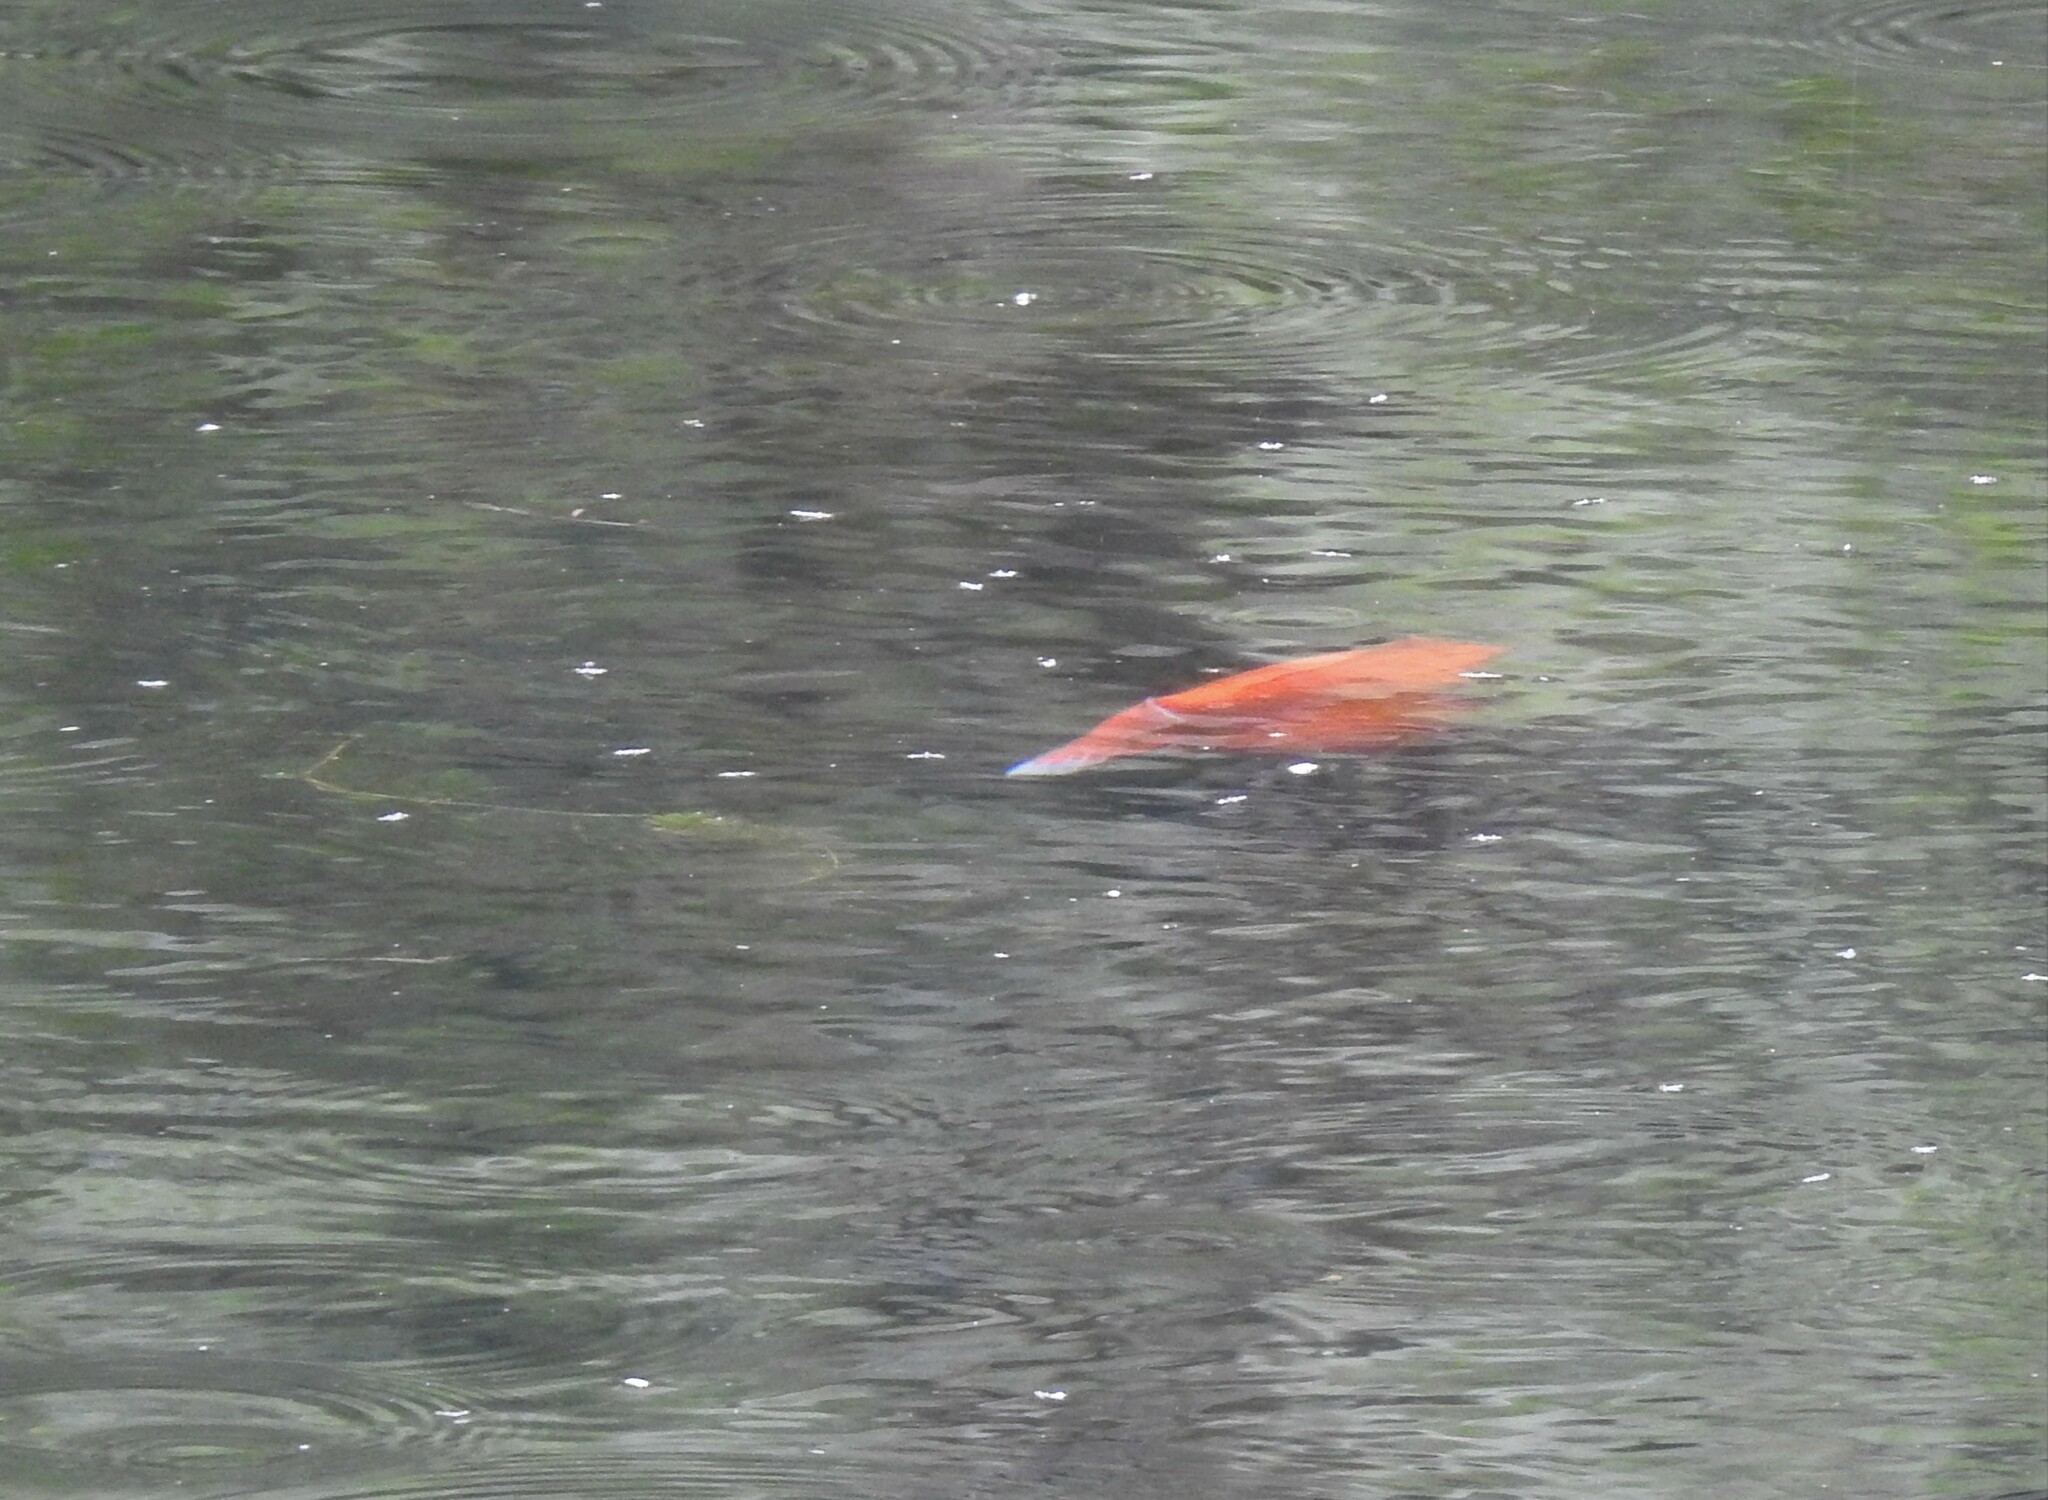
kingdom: Animalia
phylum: Chordata
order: Cypriniformes
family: Cyprinidae
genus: Carassius
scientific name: Carassius auratus
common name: Goldfish
